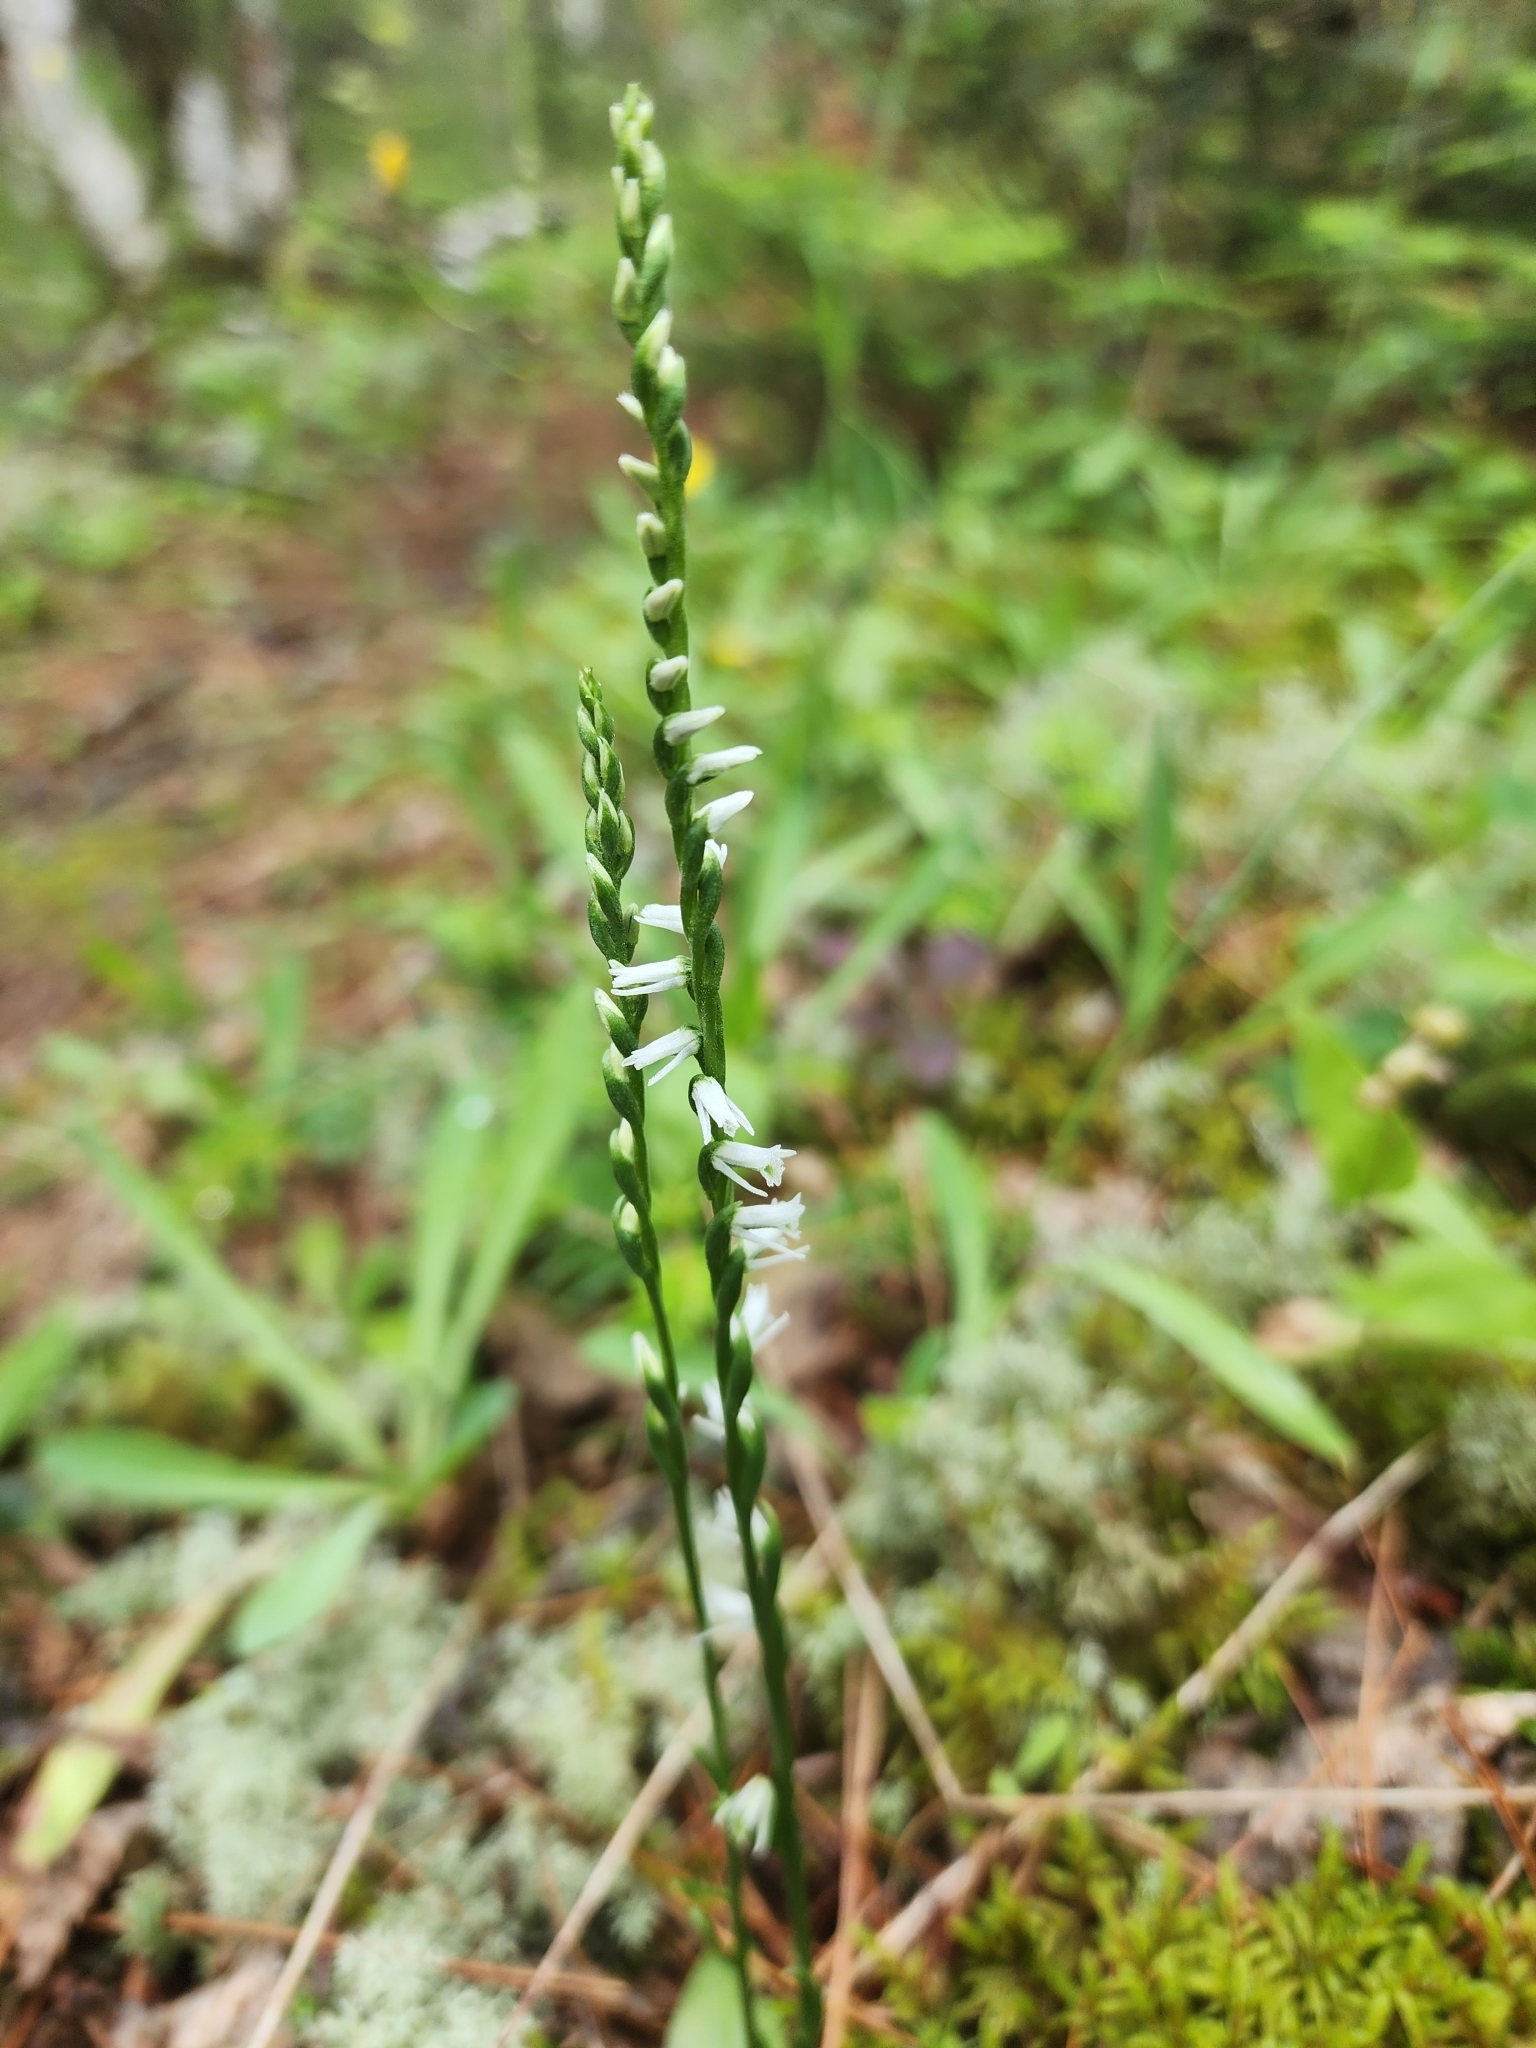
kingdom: Plantae
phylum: Tracheophyta
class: Liliopsida
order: Asparagales
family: Orchidaceae
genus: Spiranthes
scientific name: Spiranthes lacera
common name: Northern slender ladies'-tresses
